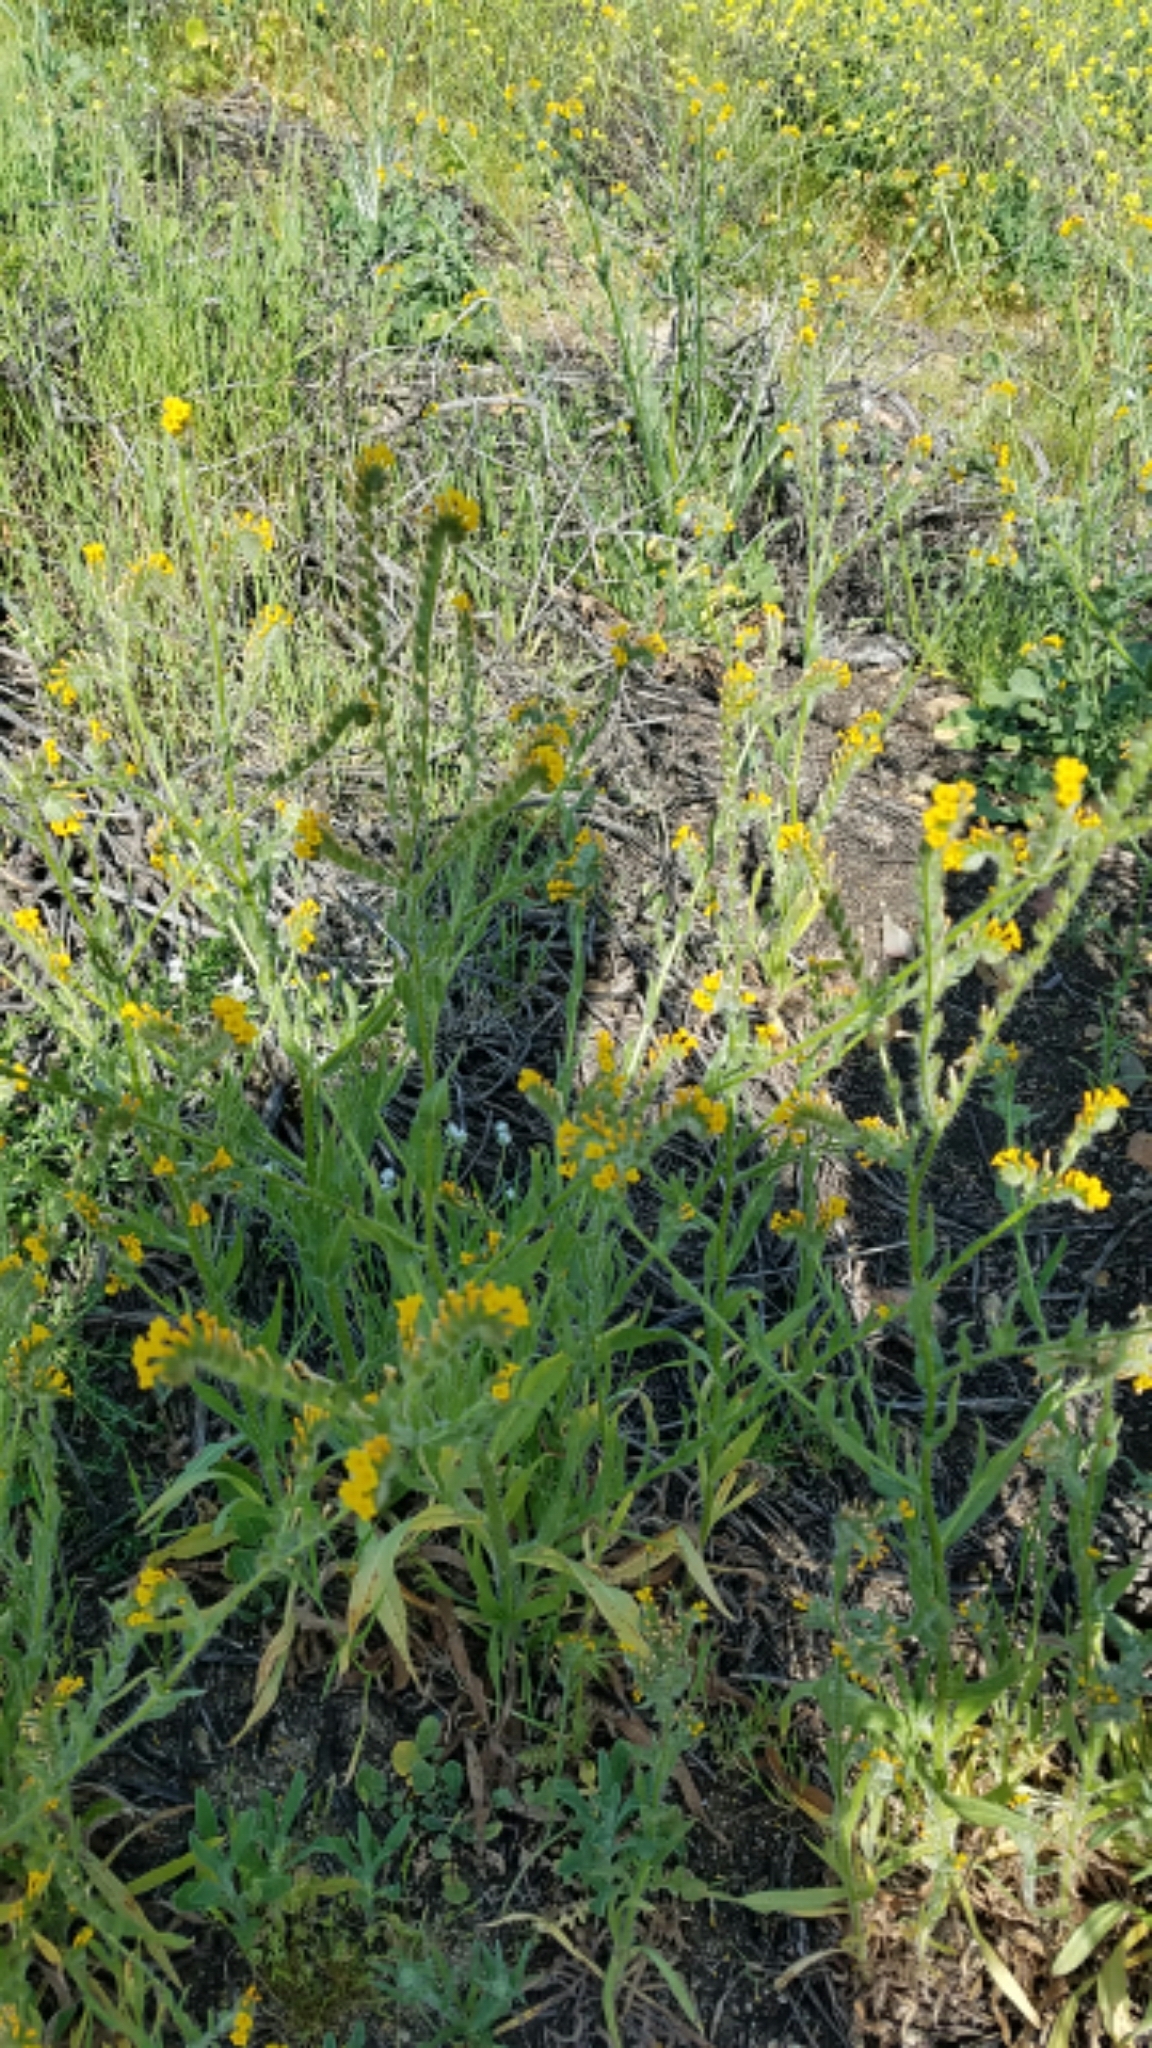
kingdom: Plantae
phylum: Tracheophyta
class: Magnoliopsida
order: Boraginales
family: Boraginaceae
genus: Amsinckia
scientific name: Amsinckia menziesii
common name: Menzies' fiddleneck
